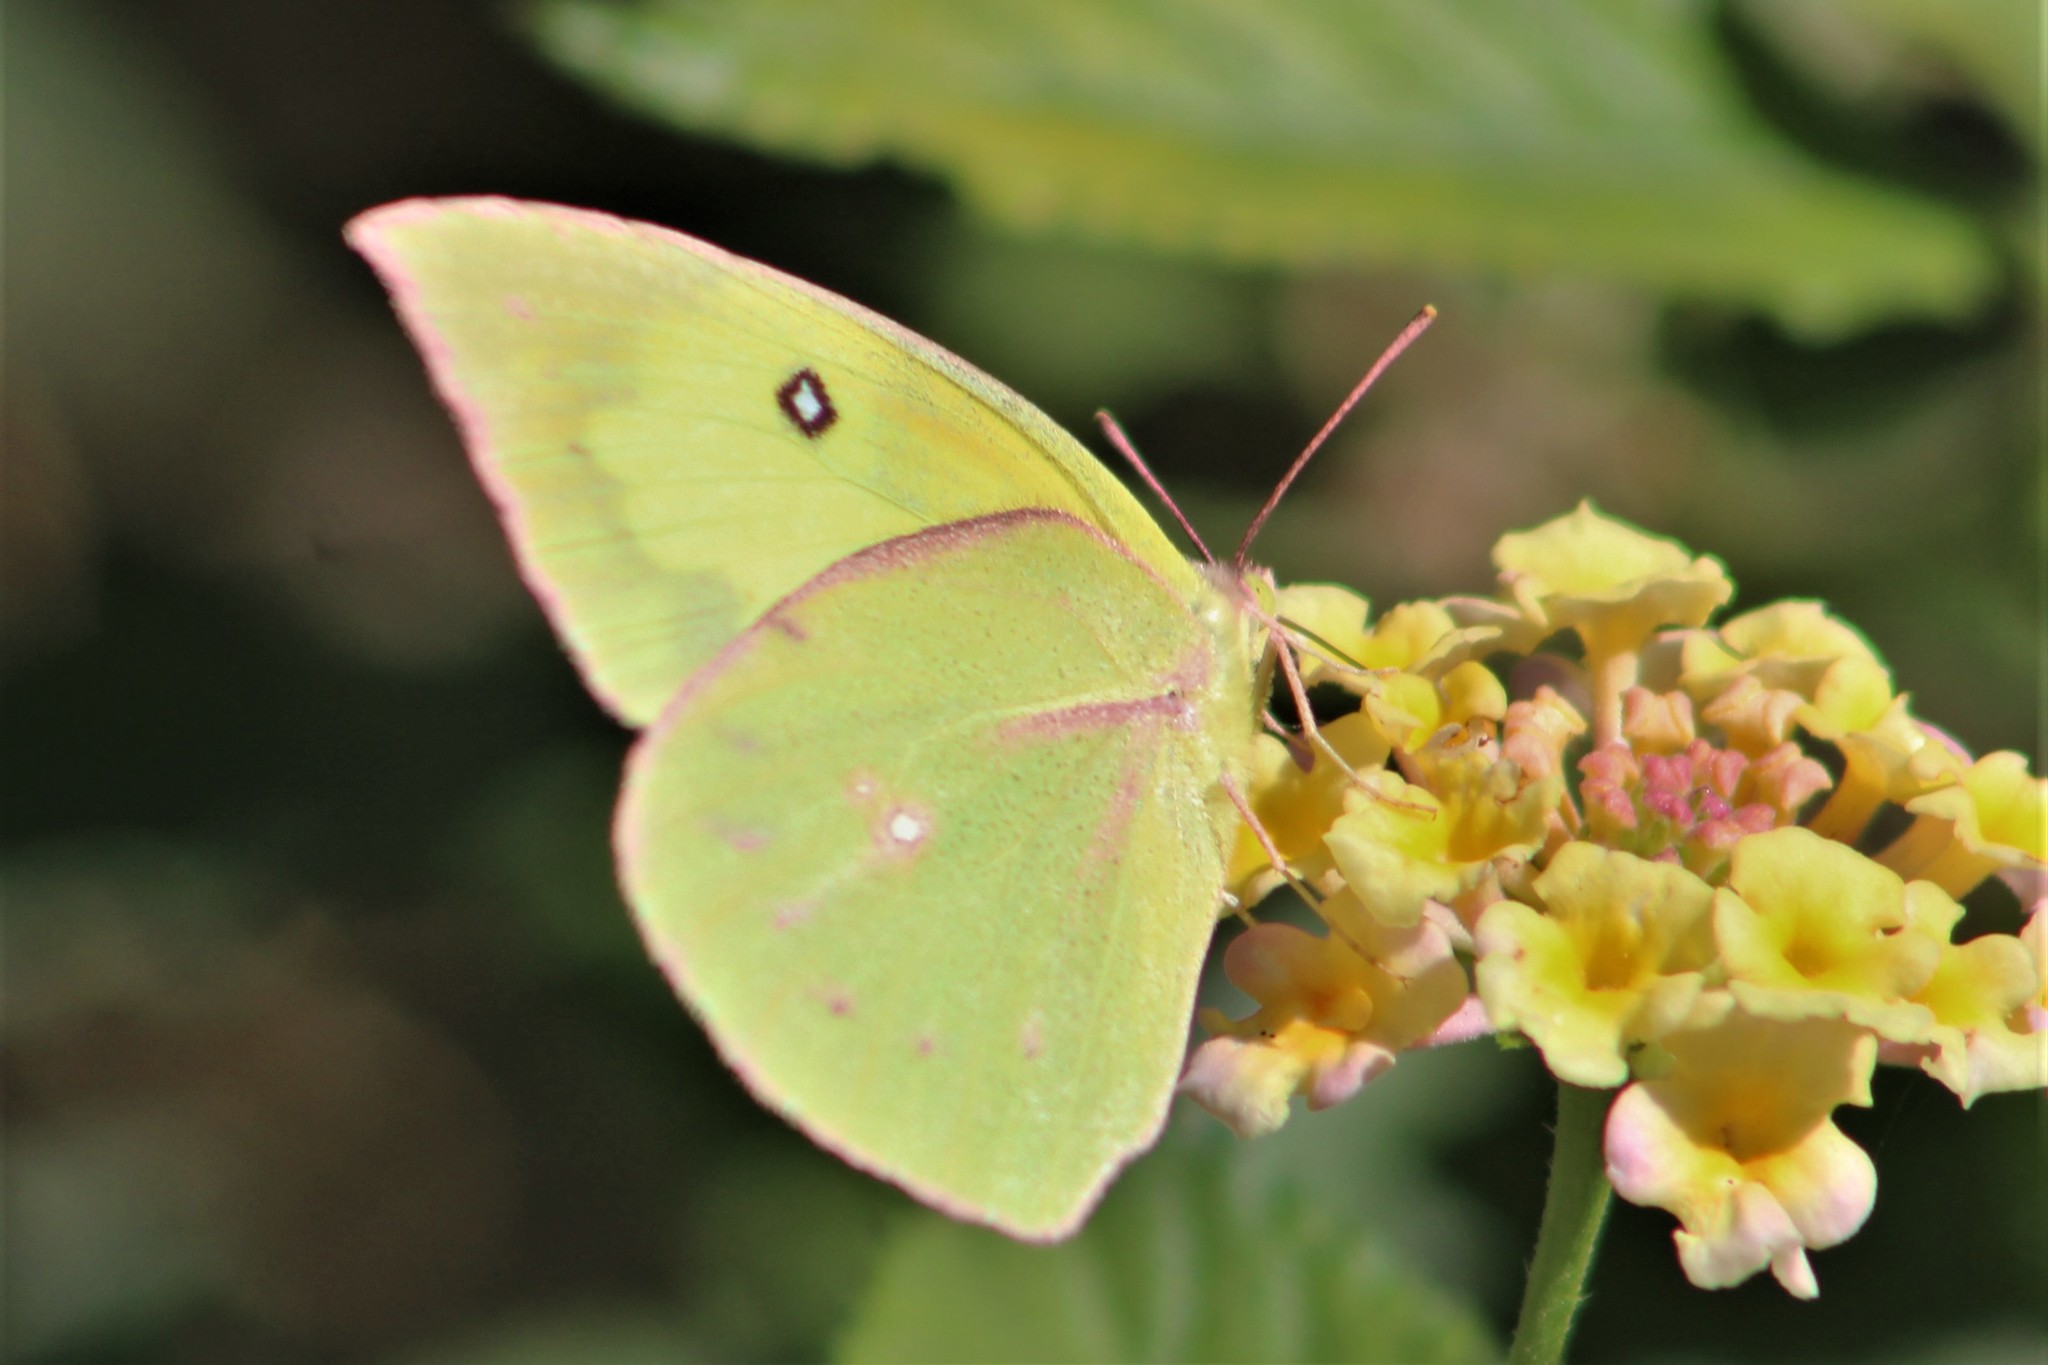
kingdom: Animalia
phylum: Arthropoda
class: Insecta
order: Lepidoptera
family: Pieridae
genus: Zerene
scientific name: Zerene cesonia
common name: Southern dogface
